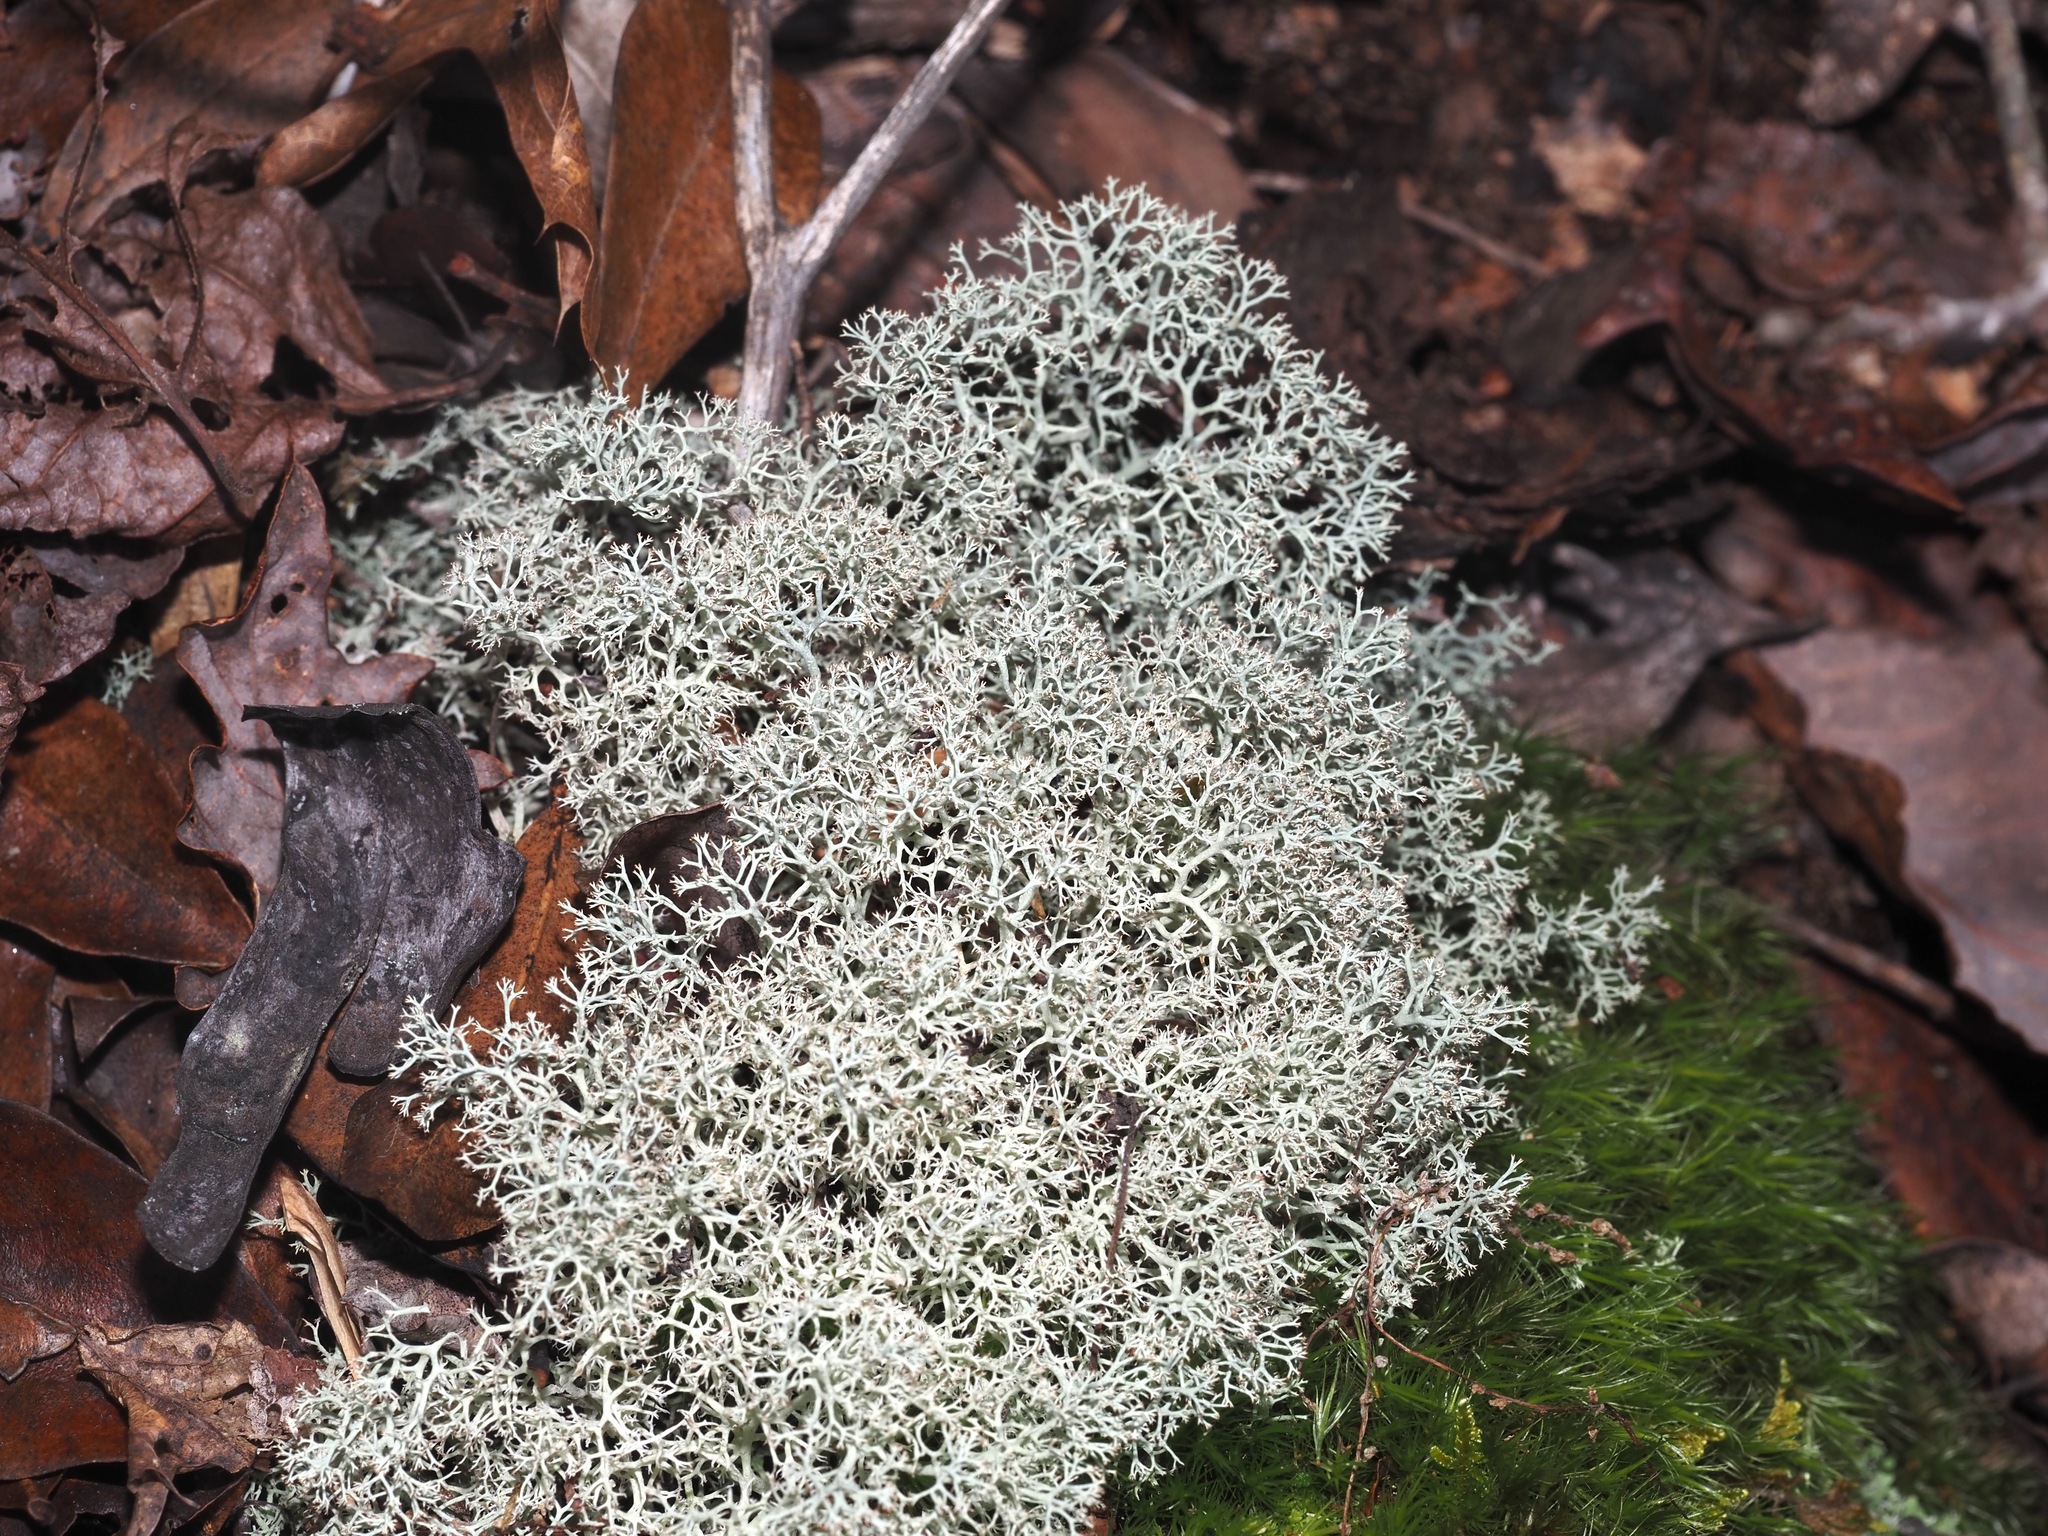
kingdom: Fungi
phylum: Ascomycota
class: Lecanoromycetes
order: Lecanorales
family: Cladoniaceae
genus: Cladonia
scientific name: Cladonia subtenuis
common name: Dixie reindeer lichen
